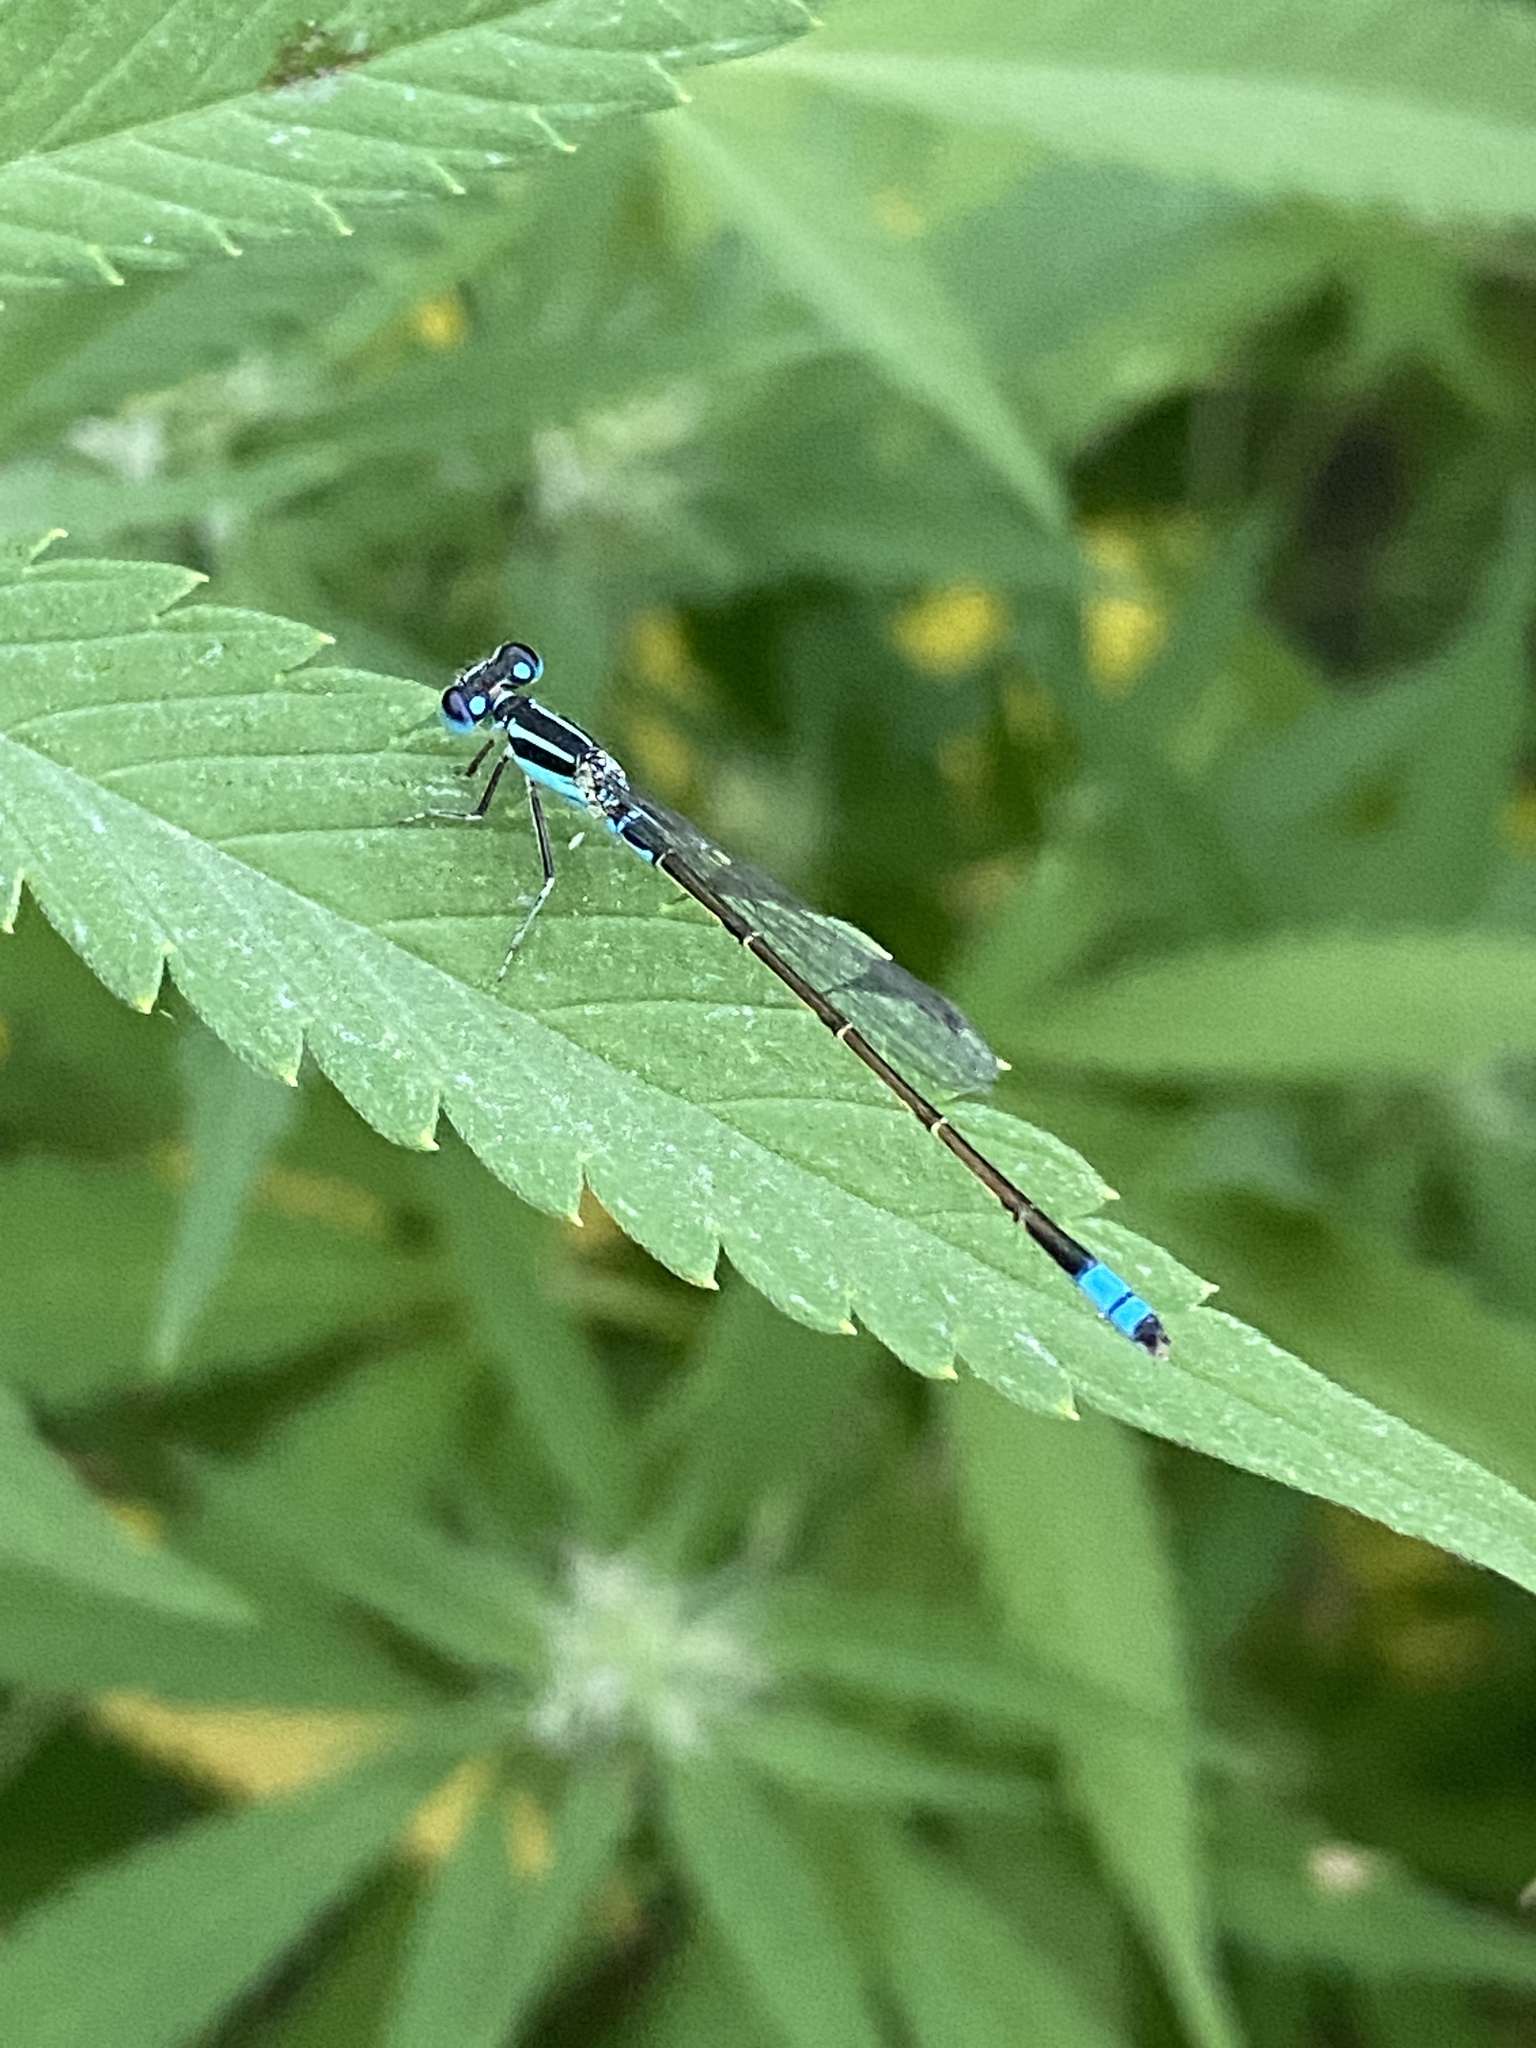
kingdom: Animalia
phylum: Arthropoda
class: Insecta
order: Odonata
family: Coenagrionidae
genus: Ischnura
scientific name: Ischnura fluviatilis
